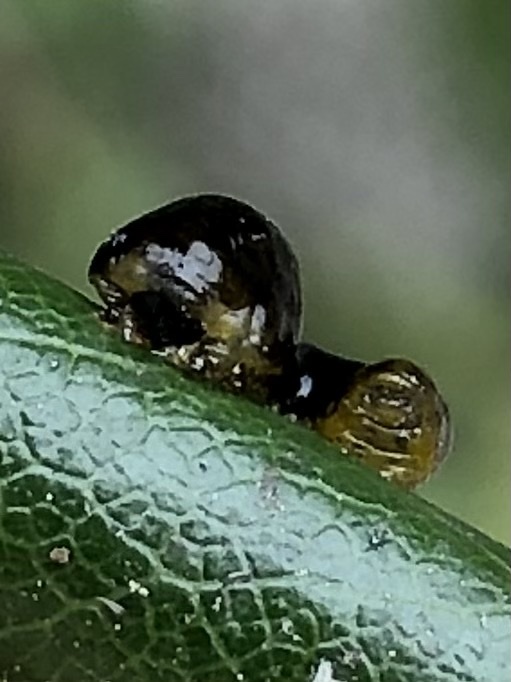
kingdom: Animalia
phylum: Arthropoda
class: Insecta
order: Hymenoptera
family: Tenthredinidae
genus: Caliroa
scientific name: Caliroa cerasi
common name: Pear sawfly
